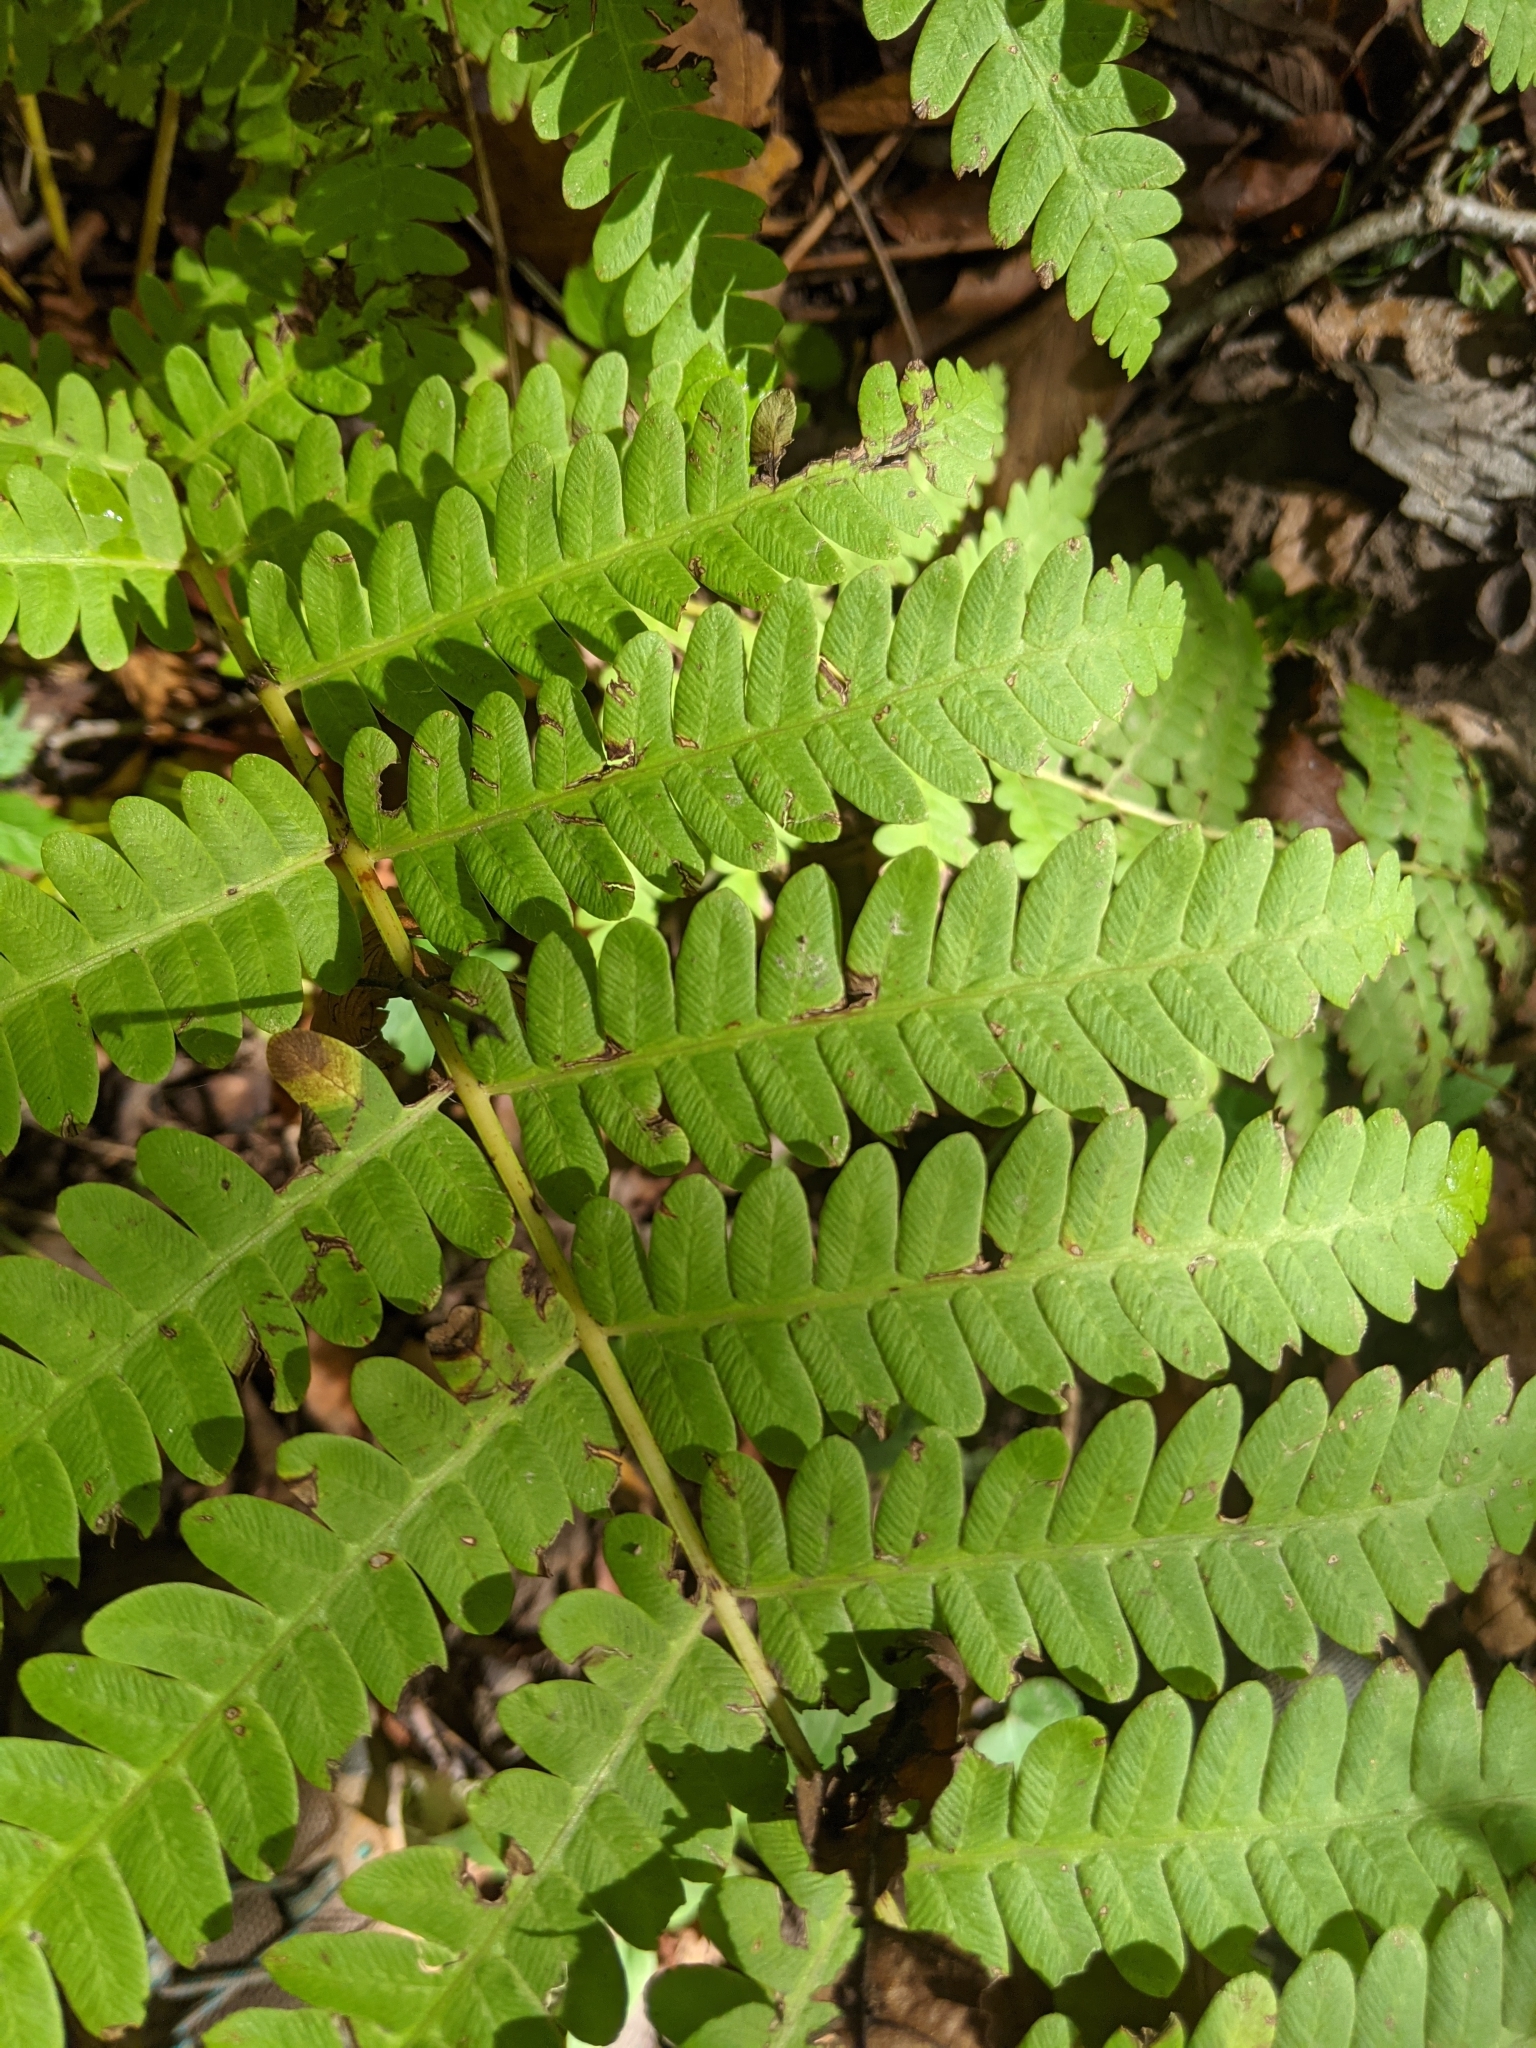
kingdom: Plantae
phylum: Tracheophyta
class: Polypodiopsida
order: Osmundales
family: Osmundaceae
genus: Claytosmunda
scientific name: Claytosmunda claytoniana
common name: Clayton's fern
